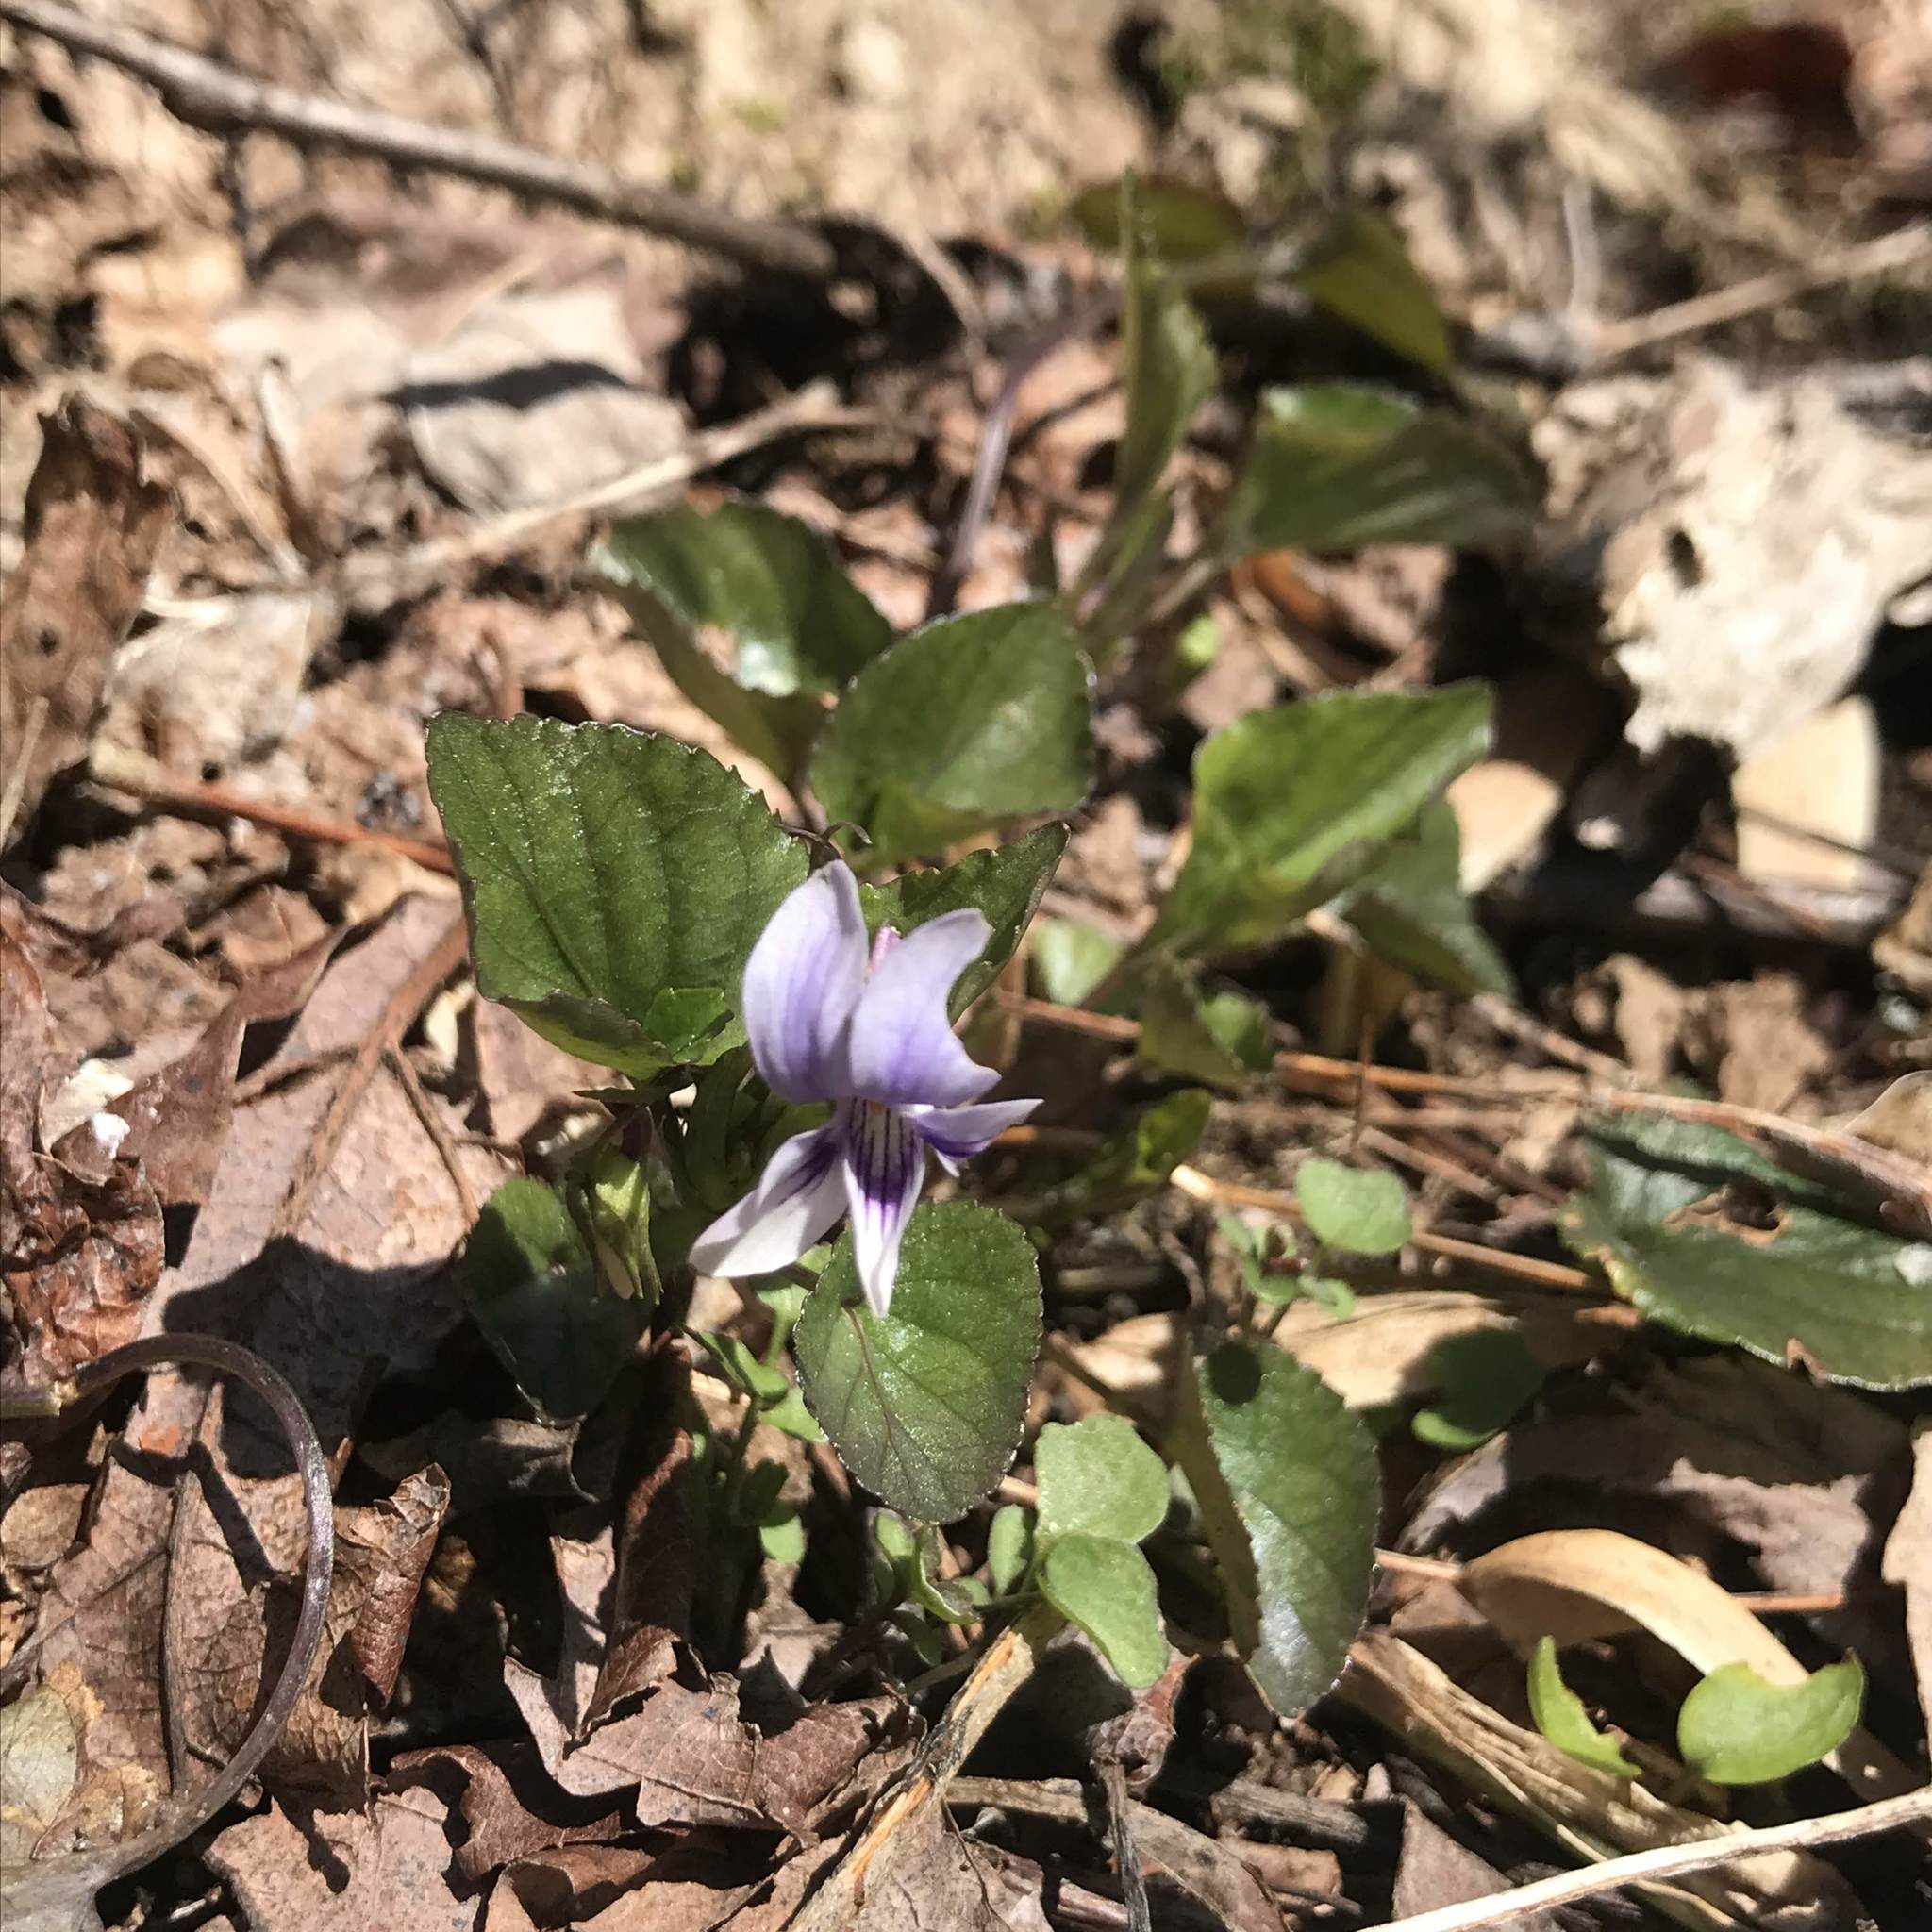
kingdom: Plantae
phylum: Tracheophyta
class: Magnoliopsida
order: Malpighiales
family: Violaceae
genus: Viola
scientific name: Viola rostrata
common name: Long-spur violet
